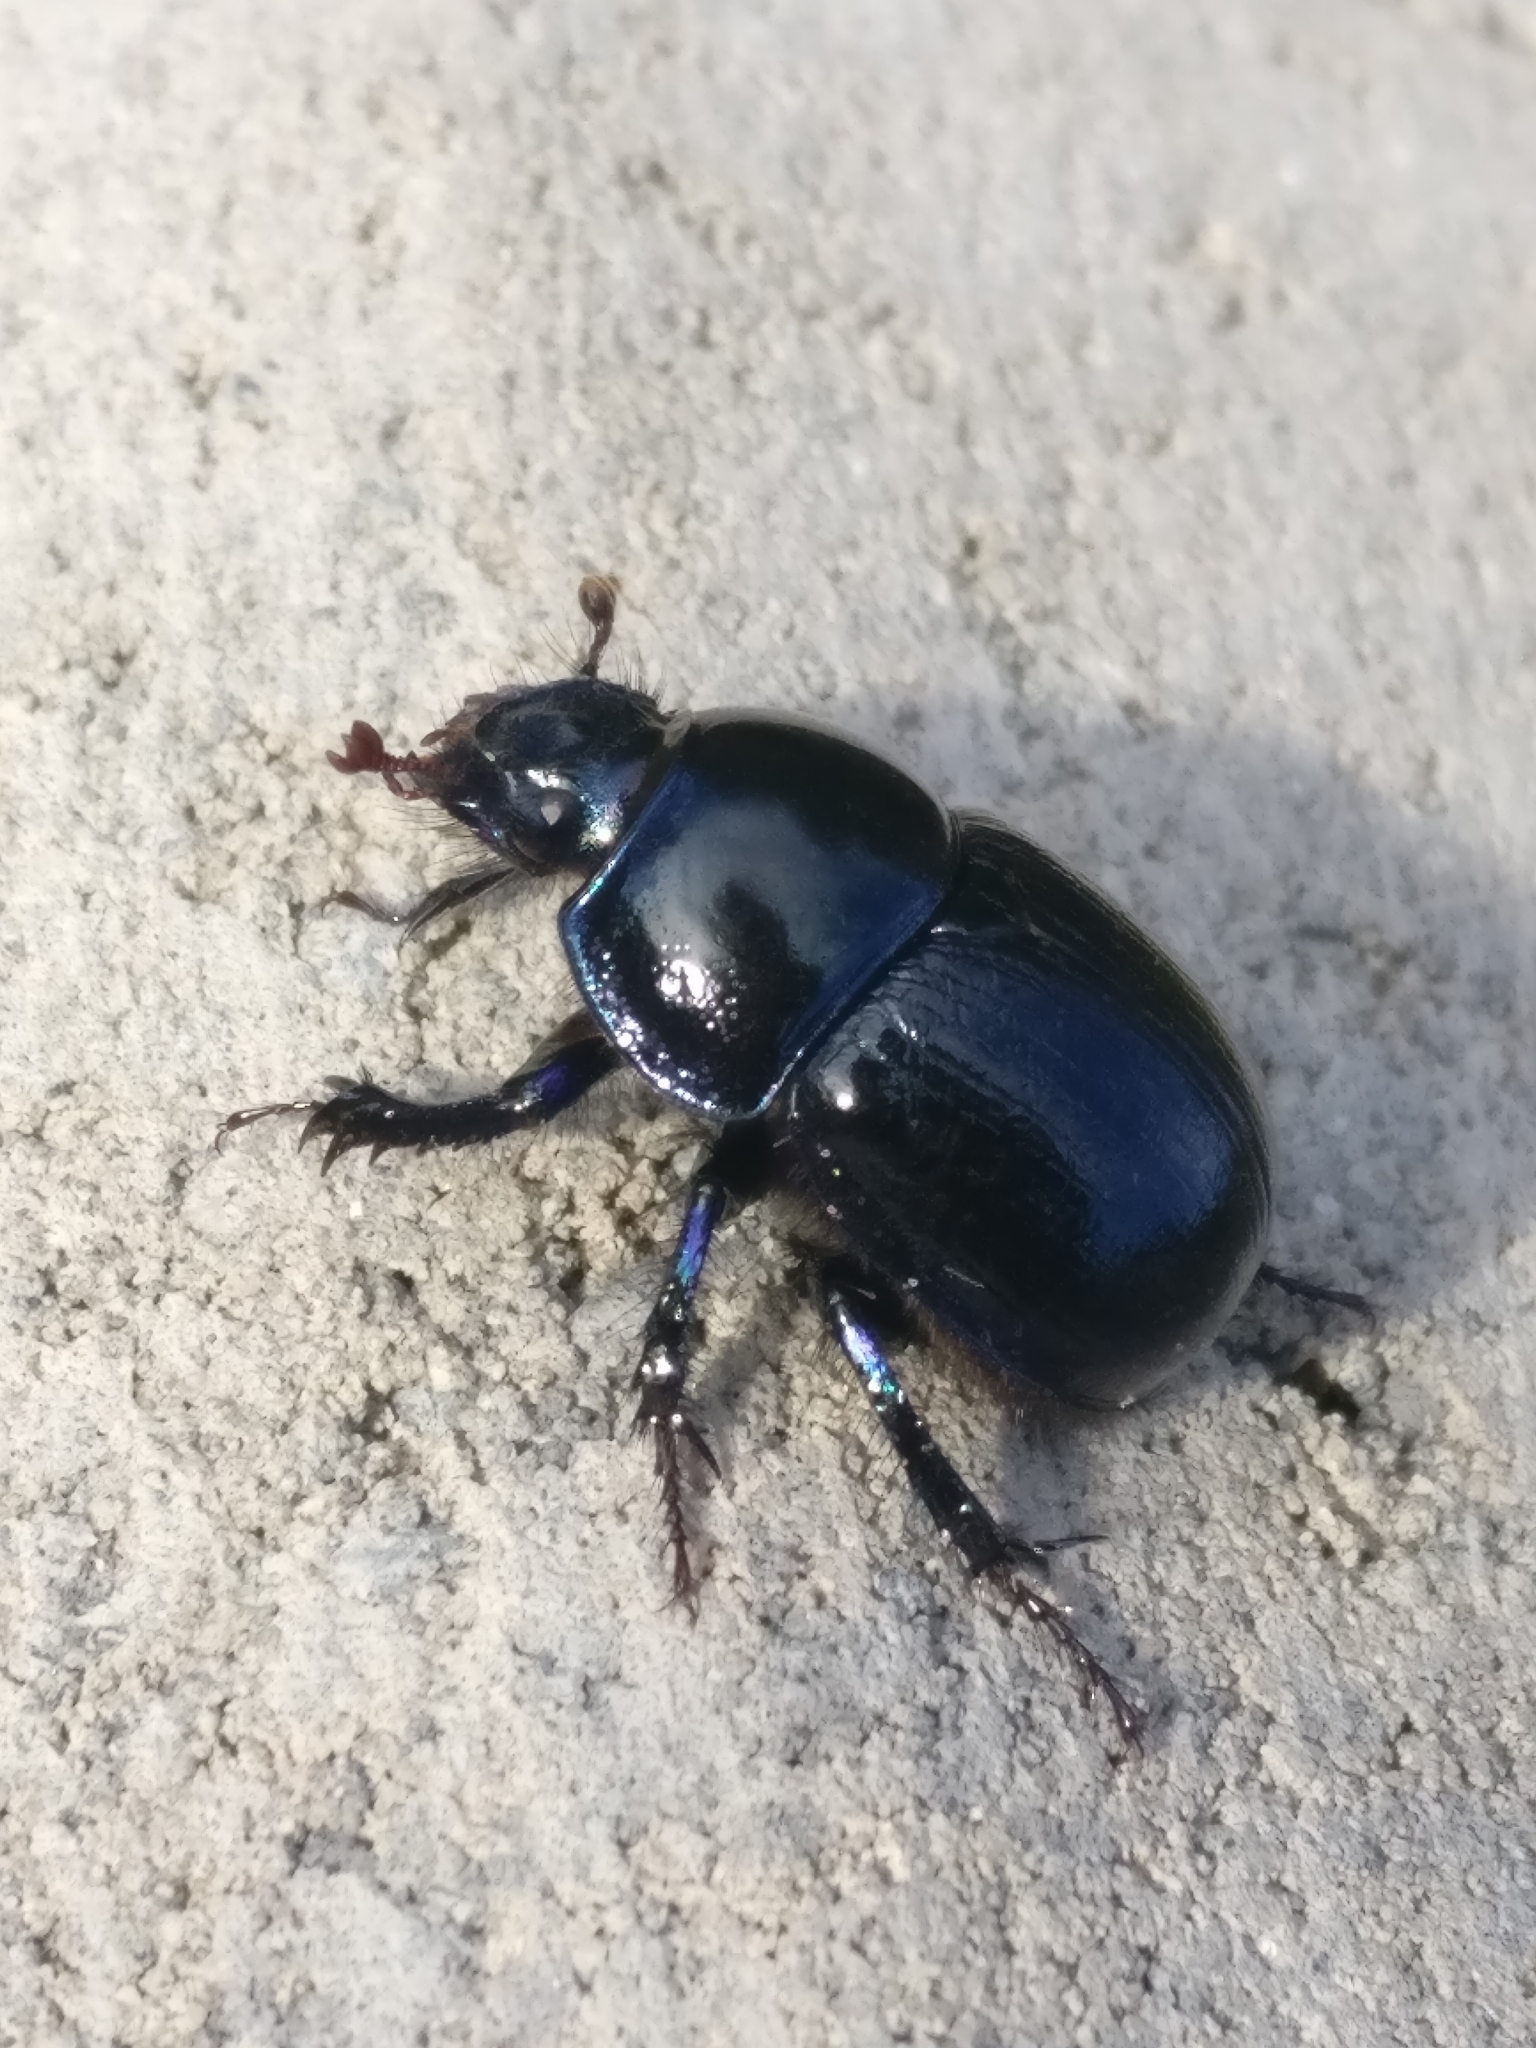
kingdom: Animalia
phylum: Arthropoda
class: Insecta
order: Coleoptera
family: Geotrupidae
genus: Anoplotrupes
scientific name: Anoplotrupes stercorosus
